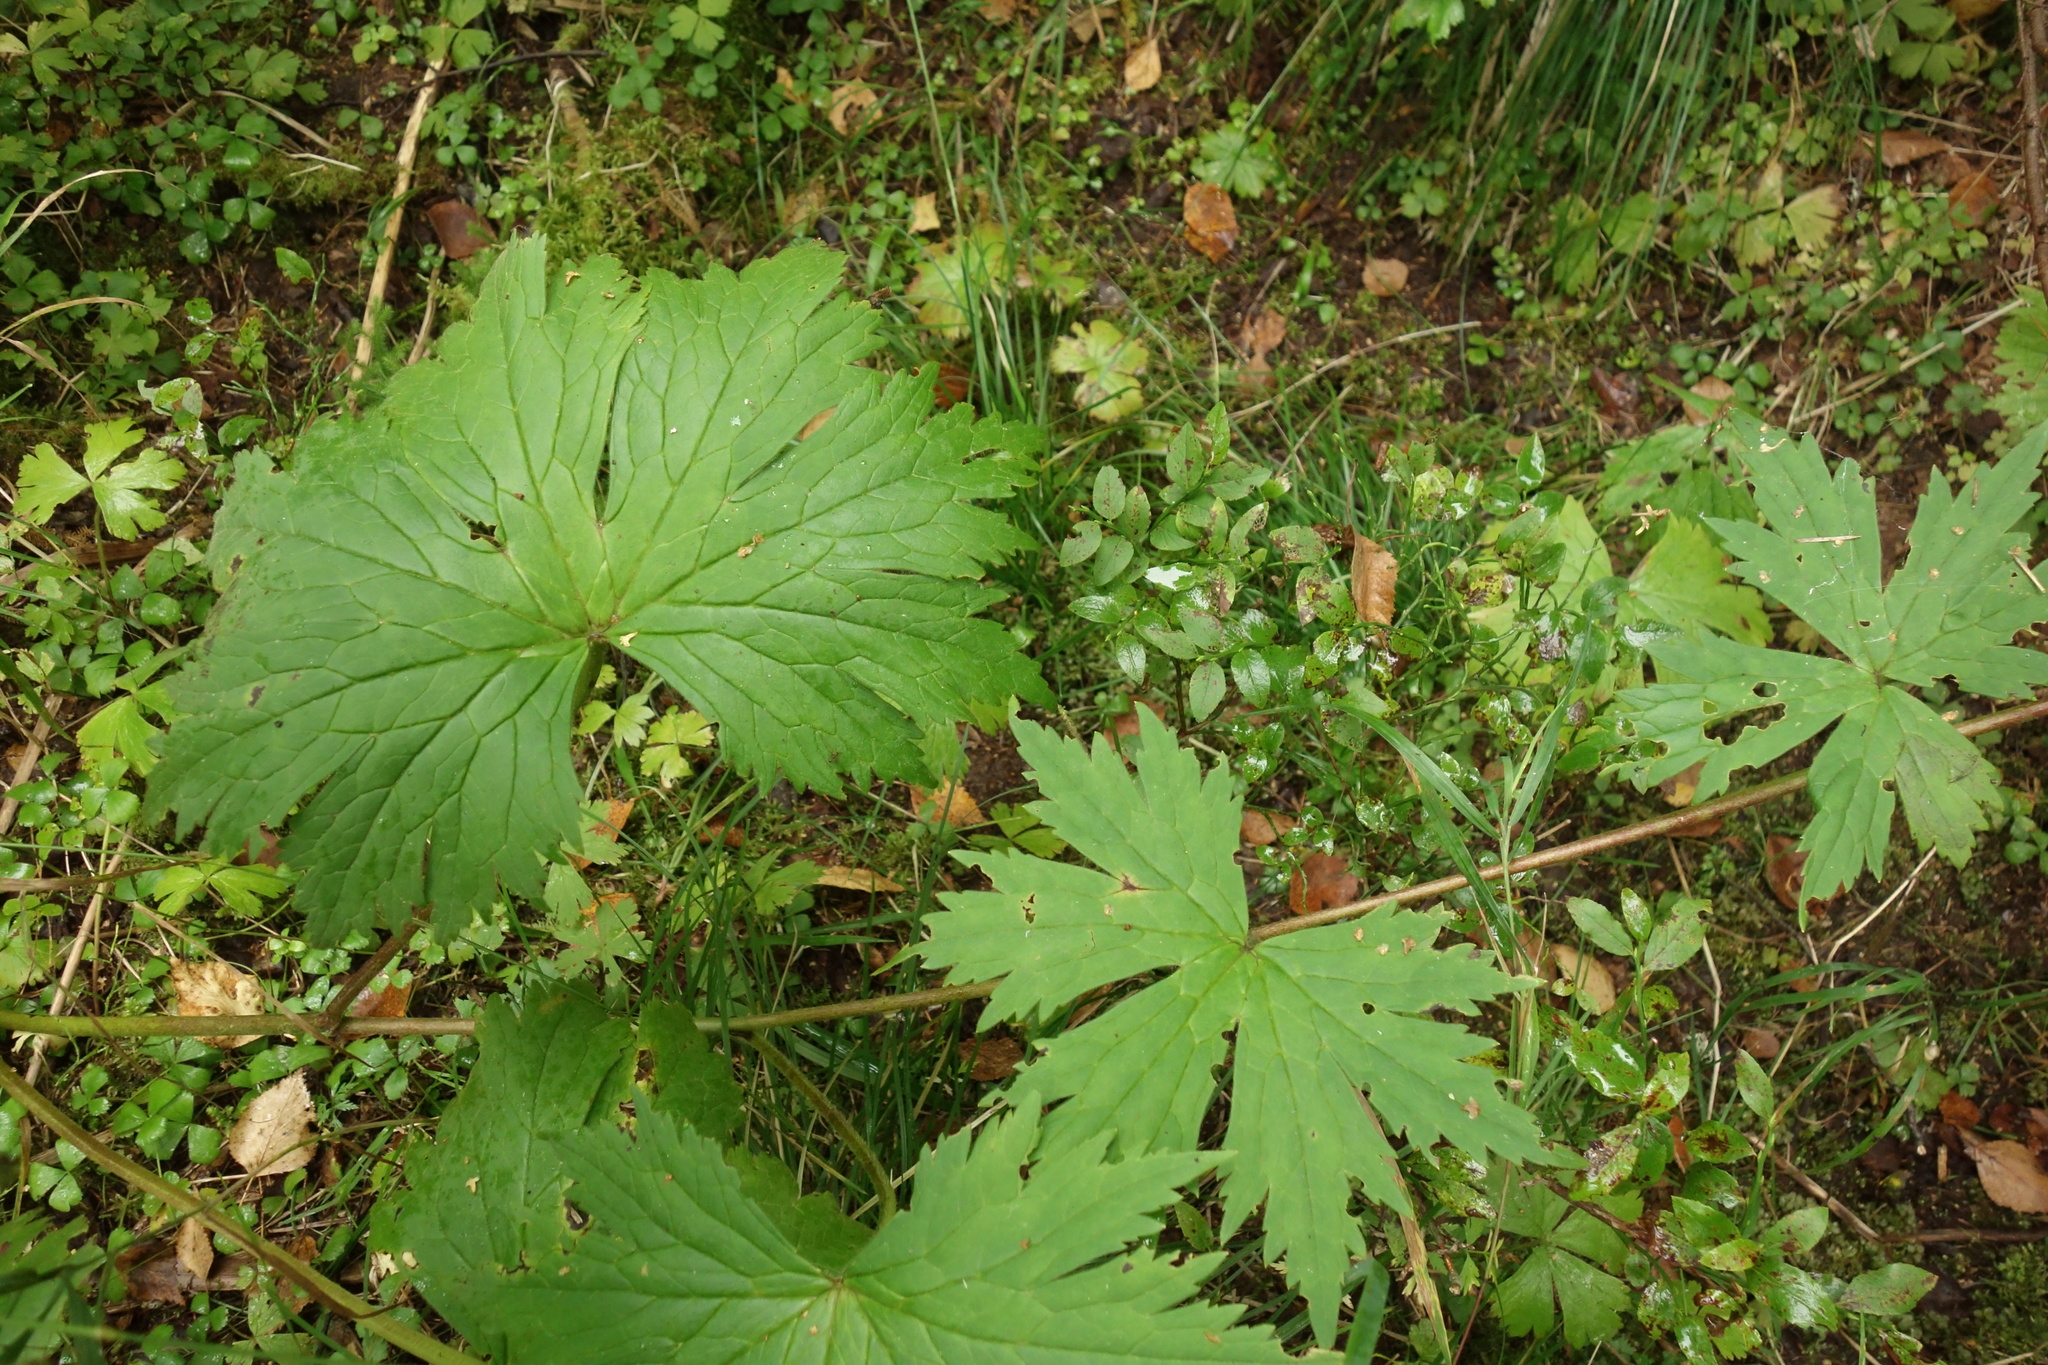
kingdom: Plantae
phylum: Tracheophyta
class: Magnoliopsida
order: Ranunculales
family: Ranunculaceae
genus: Aconitum
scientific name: Aconitum rubicundum
